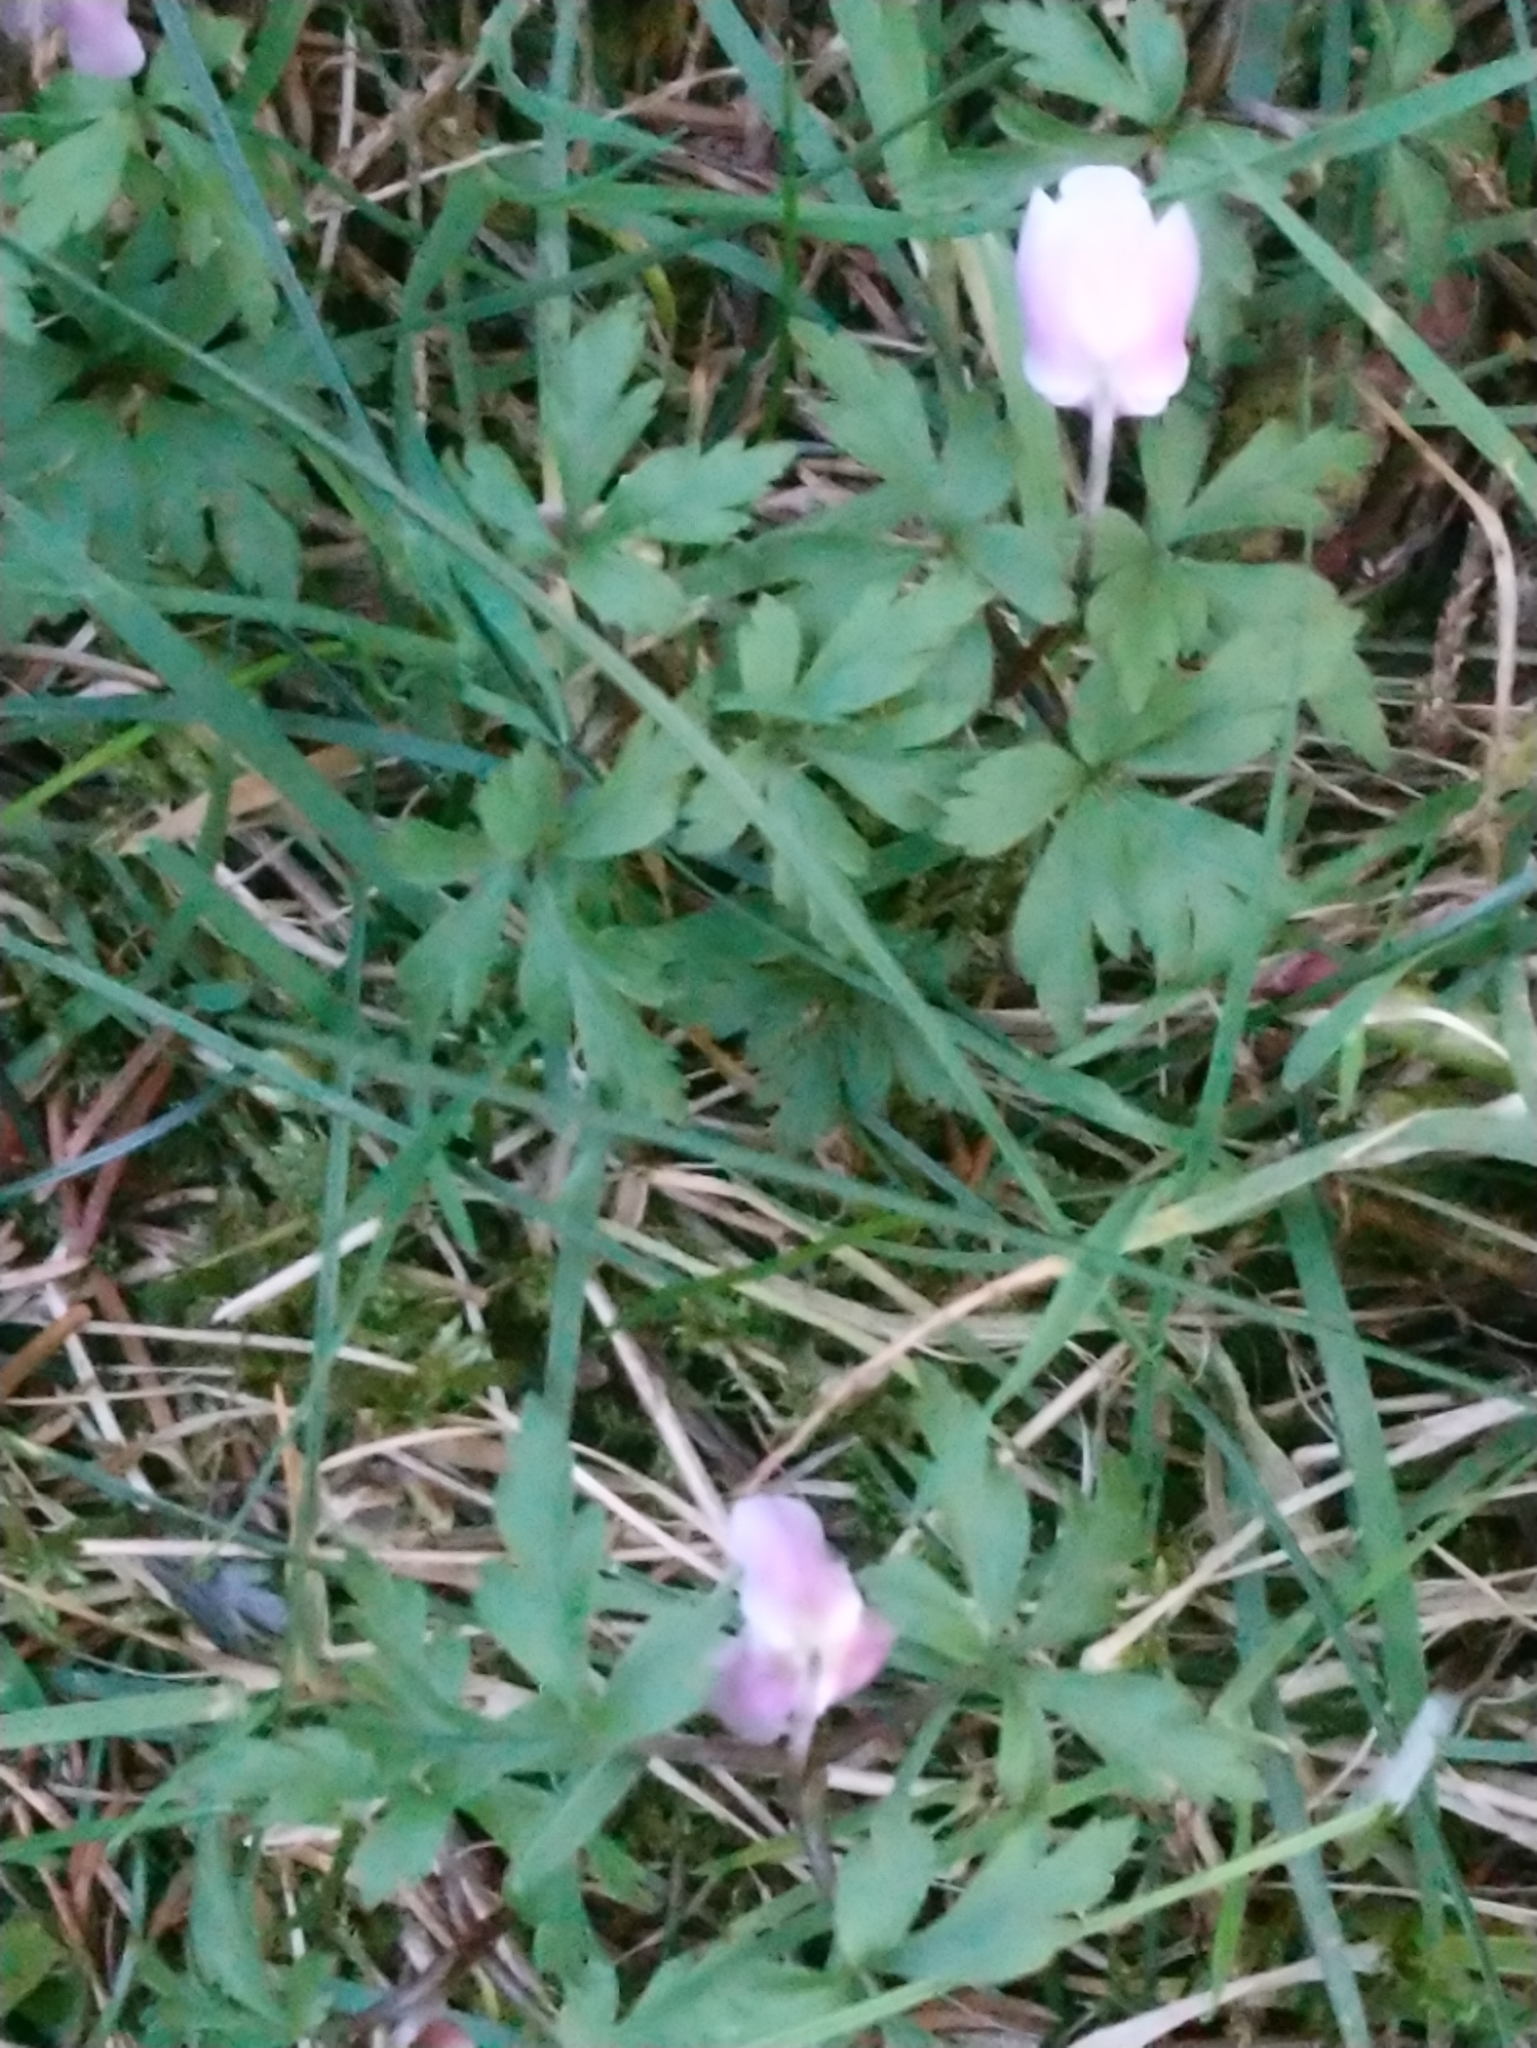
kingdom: Plantae
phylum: Tracheophyta
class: Magnoliopsida
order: Ranunculales
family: Ranunculaceae
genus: Anemone
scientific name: Anemone nemorosa
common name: Wood anemone
